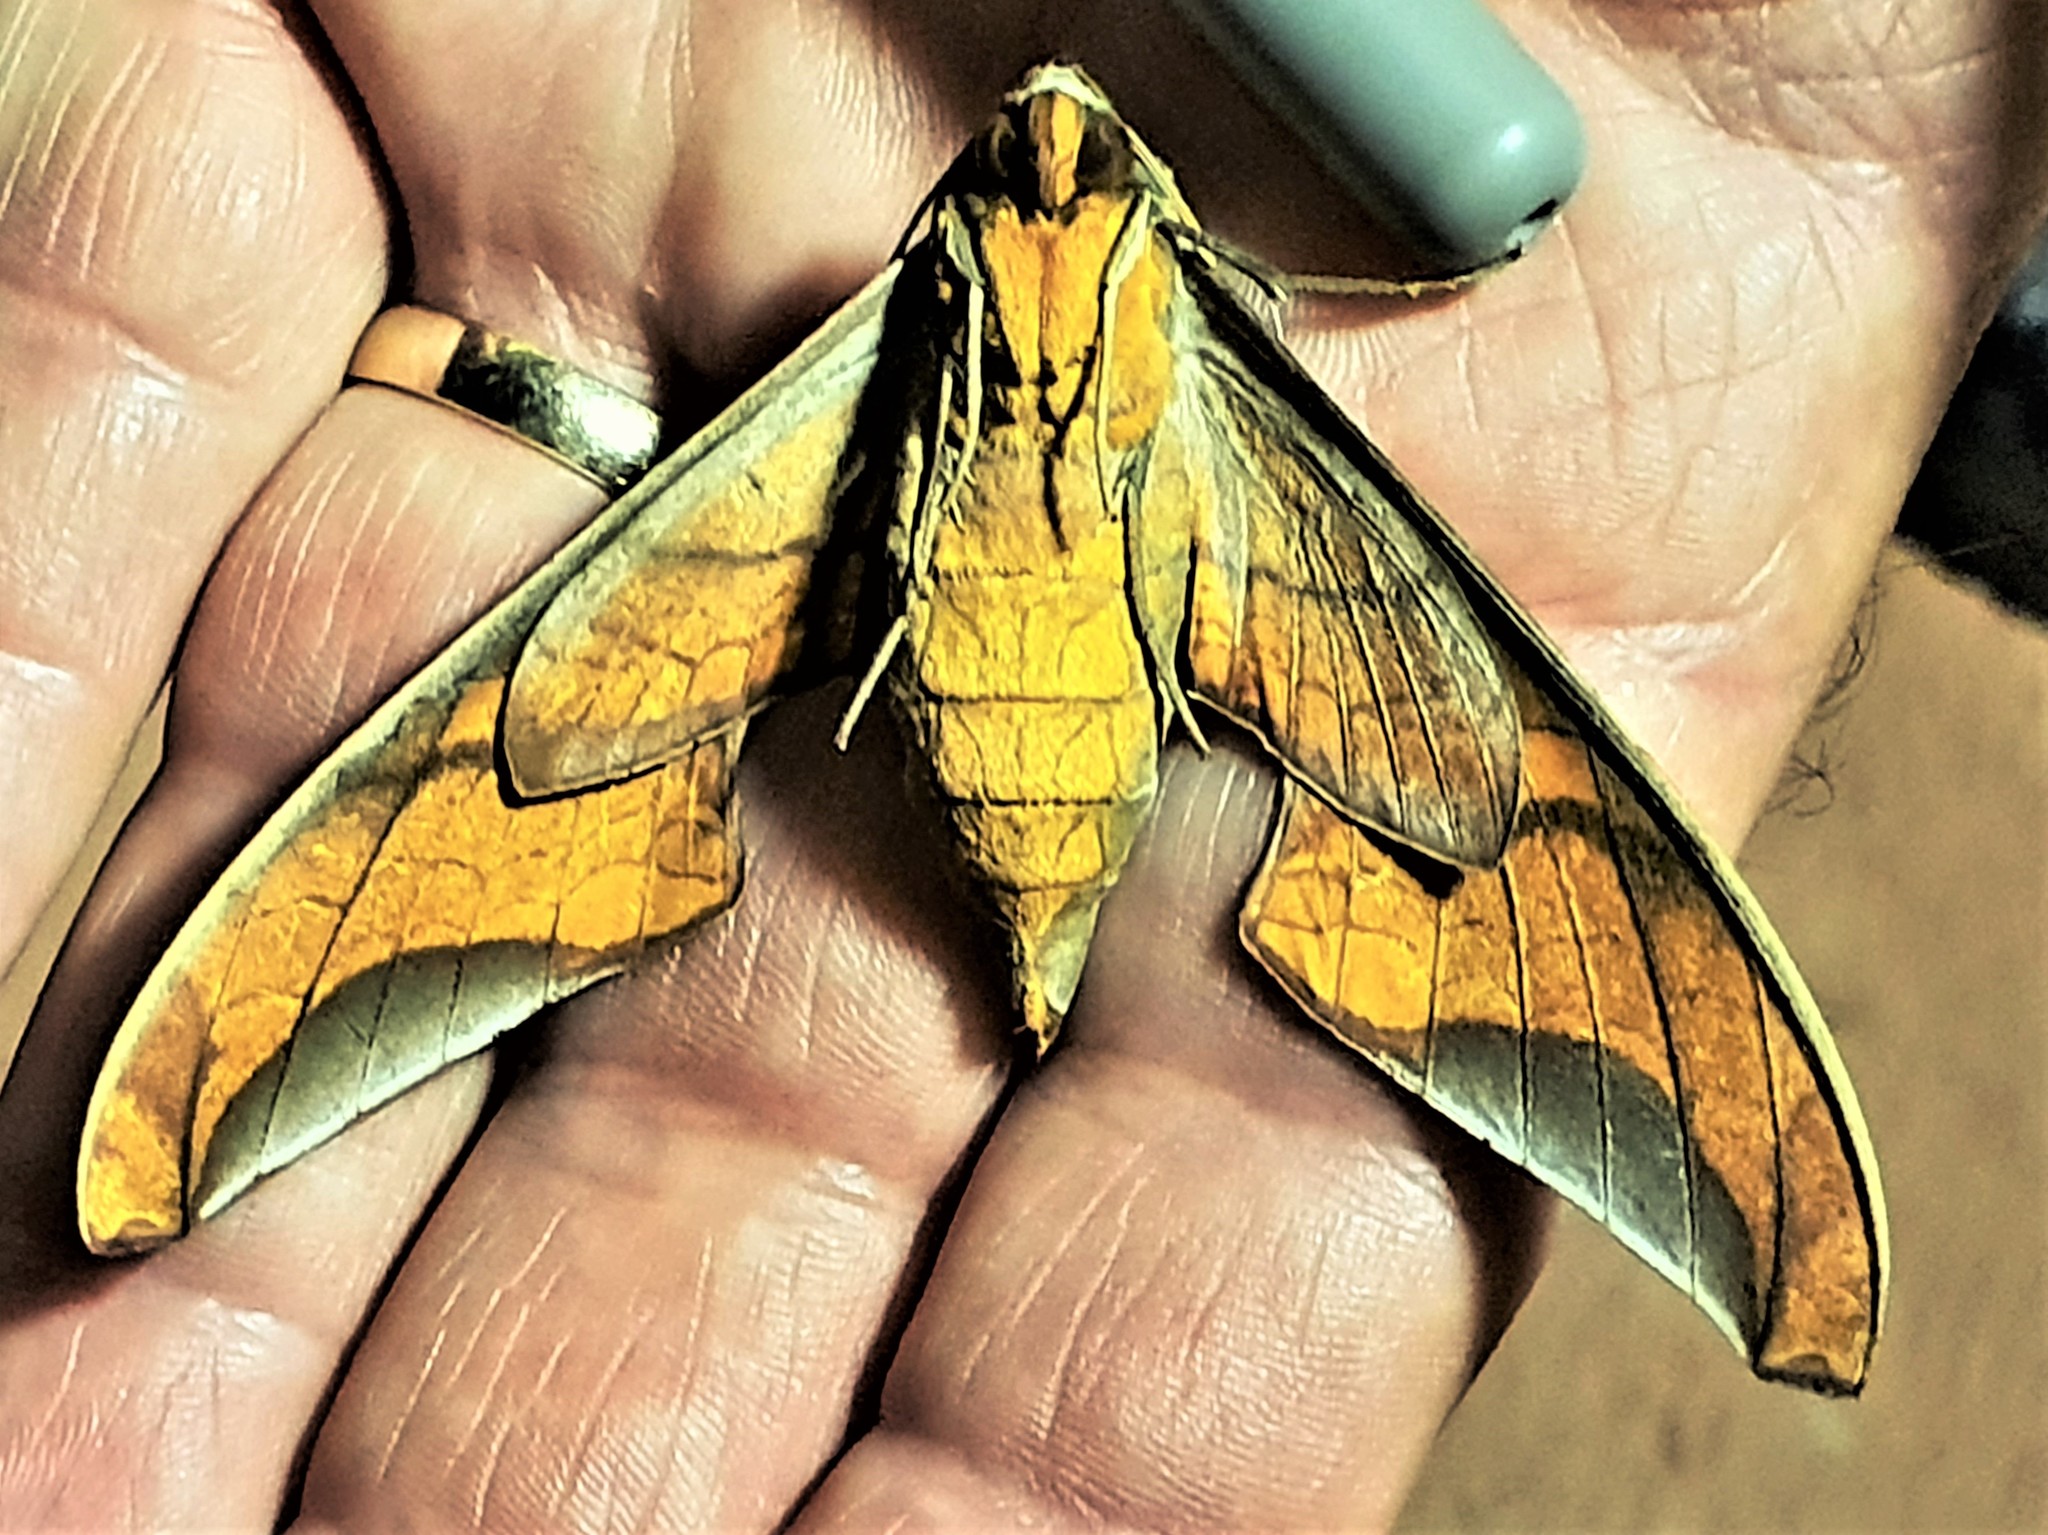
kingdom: Animalia
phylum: Arthropoda
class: Insecta
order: Lepidoptera
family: Sphingidae
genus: Protambulyx
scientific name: Protambulyx goeldii
